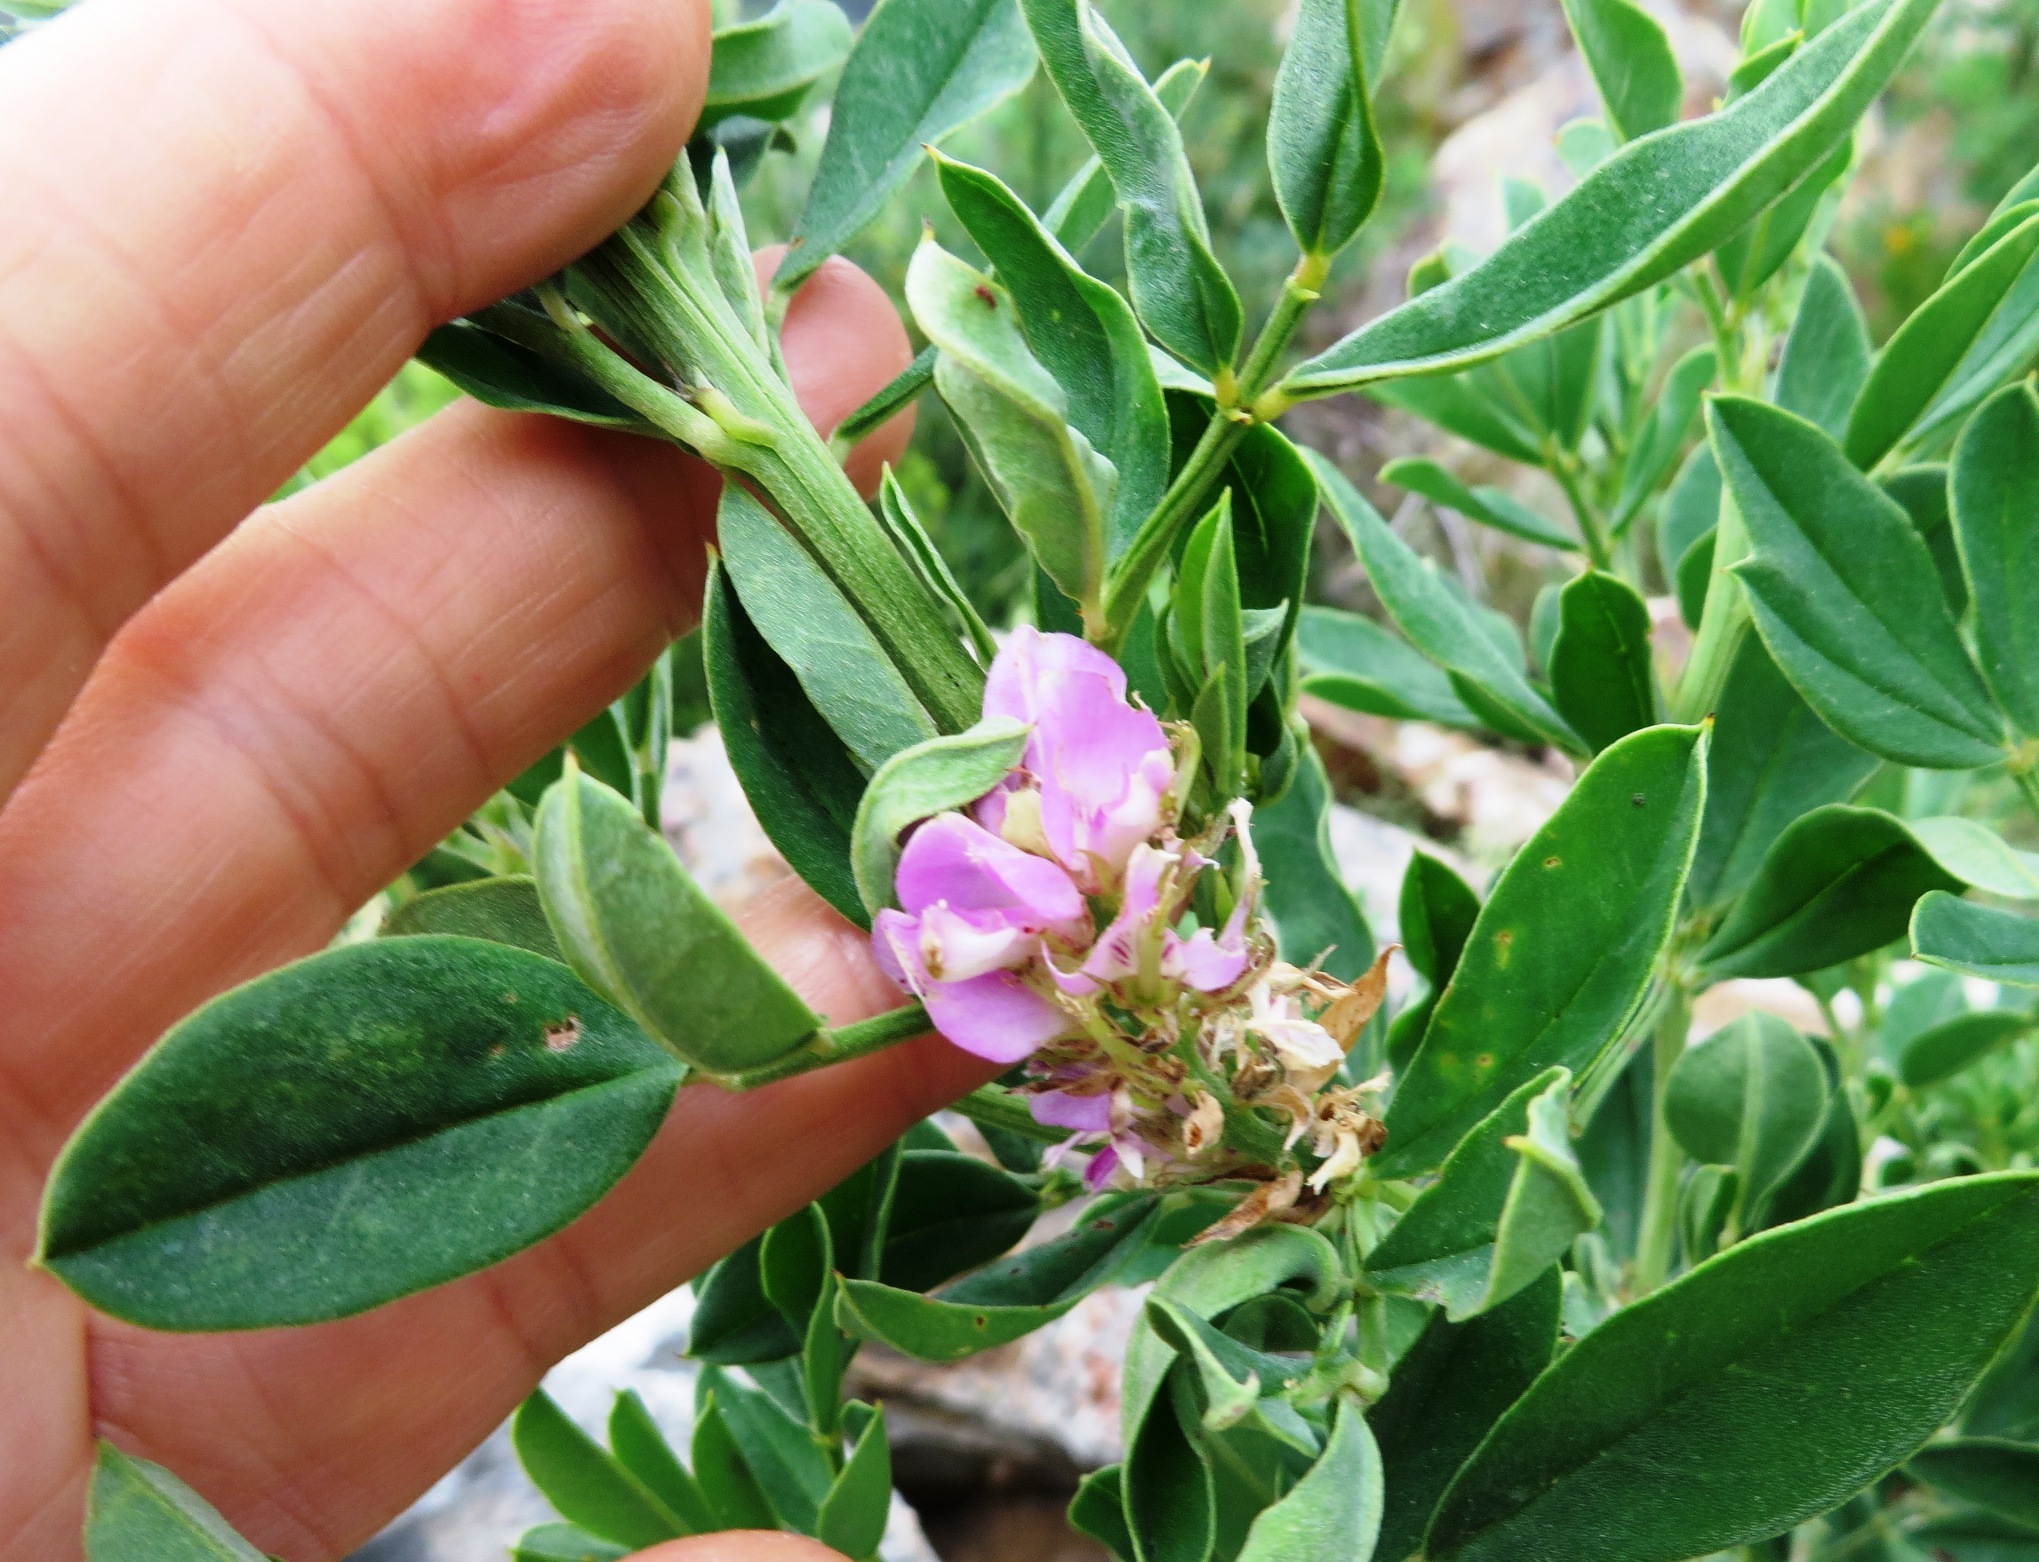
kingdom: Plantae
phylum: Tracheophyta
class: Magnoliopsida
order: Fabales
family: Fabaceae
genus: Indigofera
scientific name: Indigofera cytisoides
